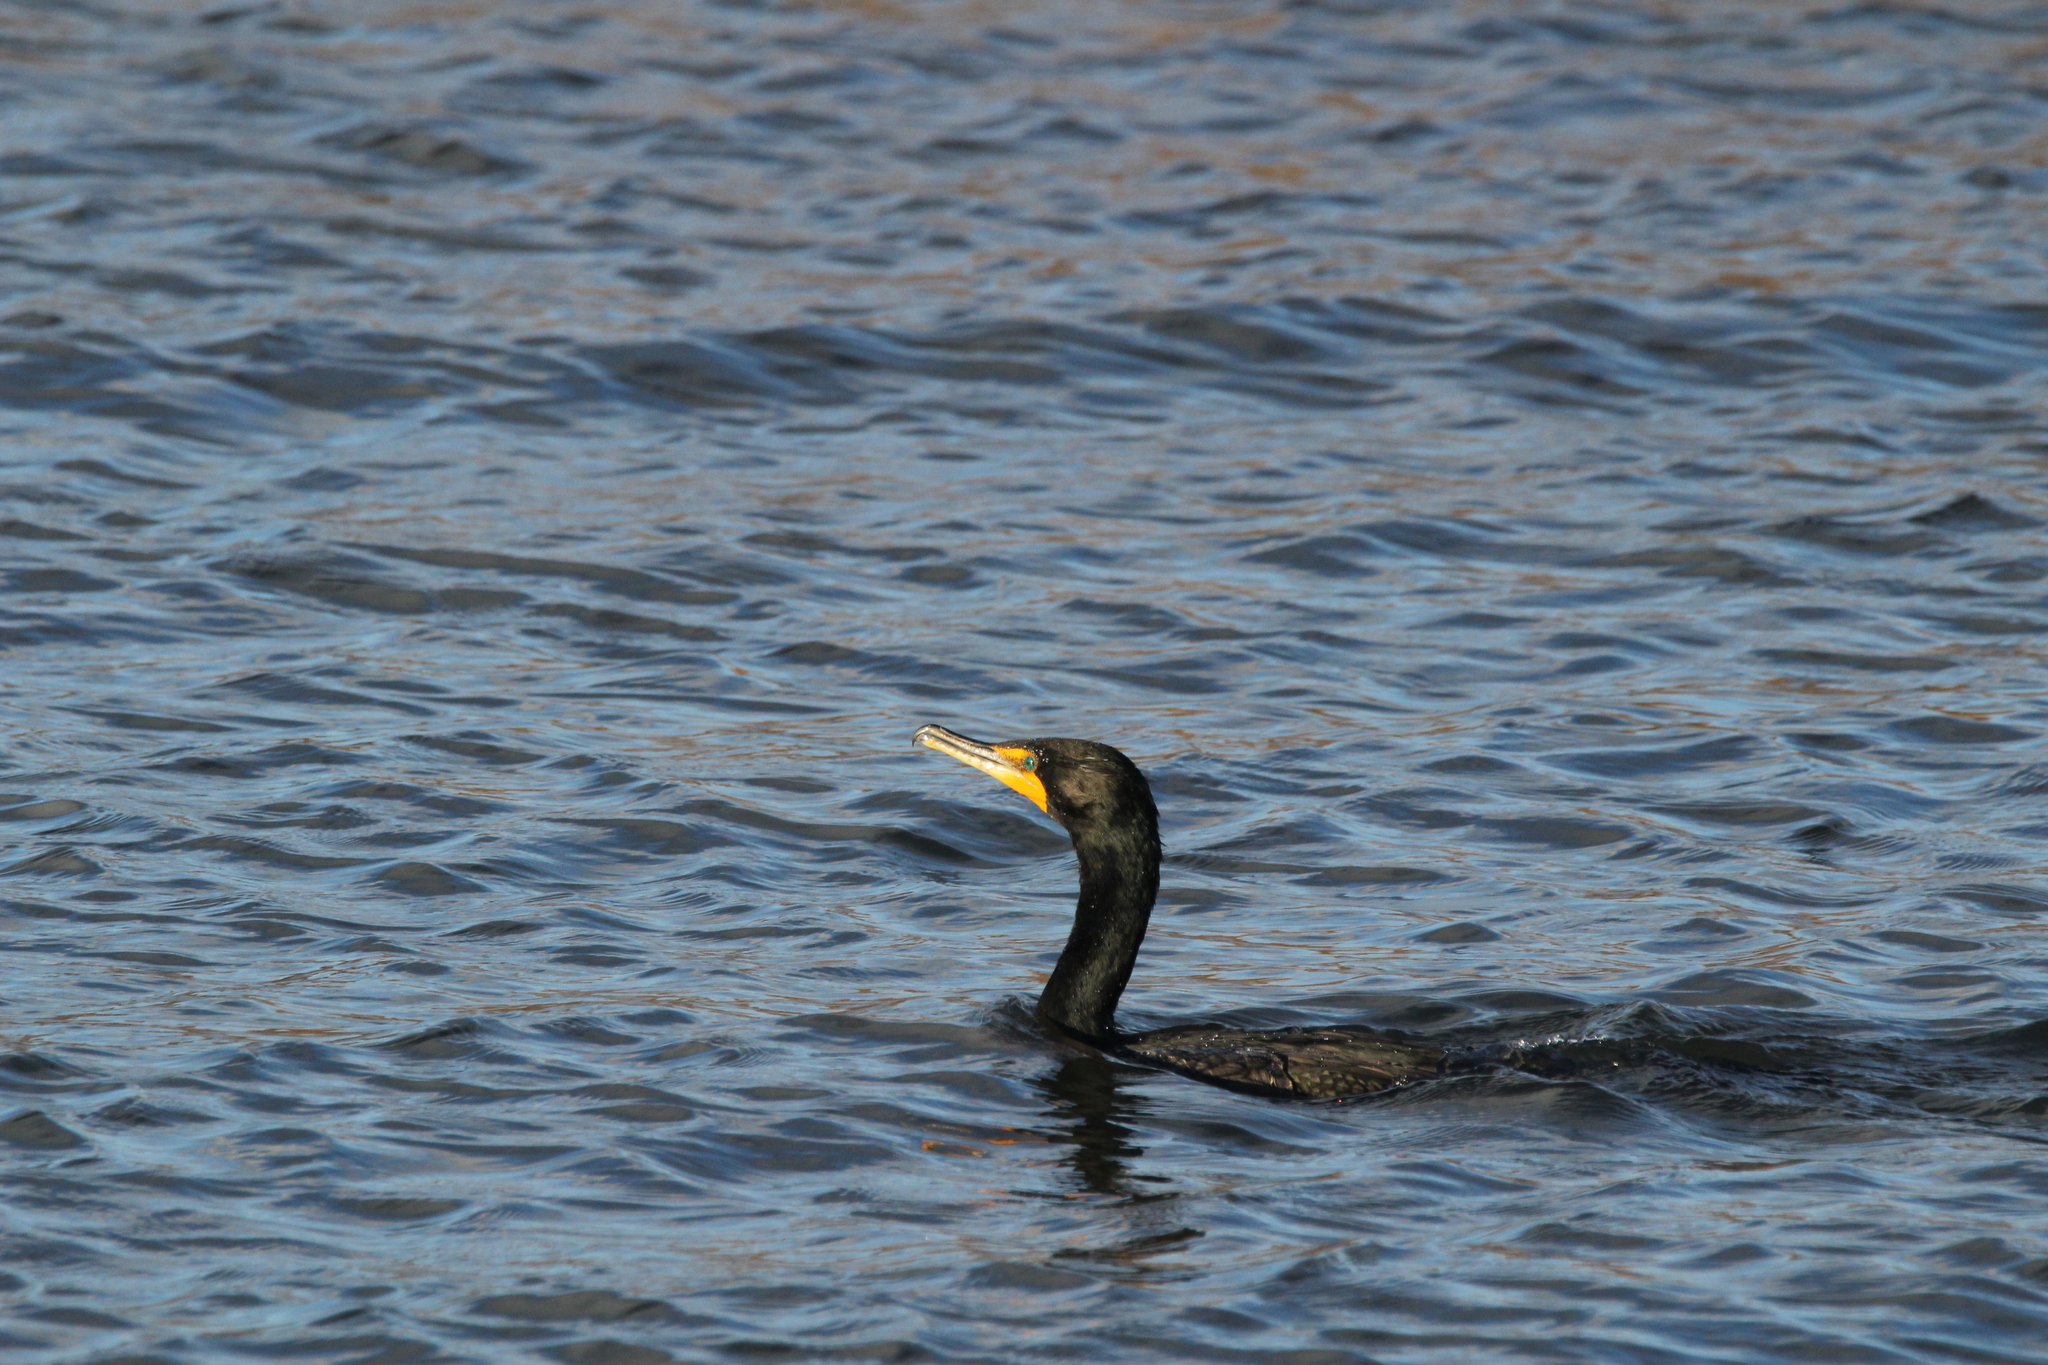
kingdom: Animalia
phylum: Chordata
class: Aves
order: Suliformes
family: Phalacrocoracidae
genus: Phalacrocorax
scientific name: Phalacrocorax auritus
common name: Double-crested cormorant
